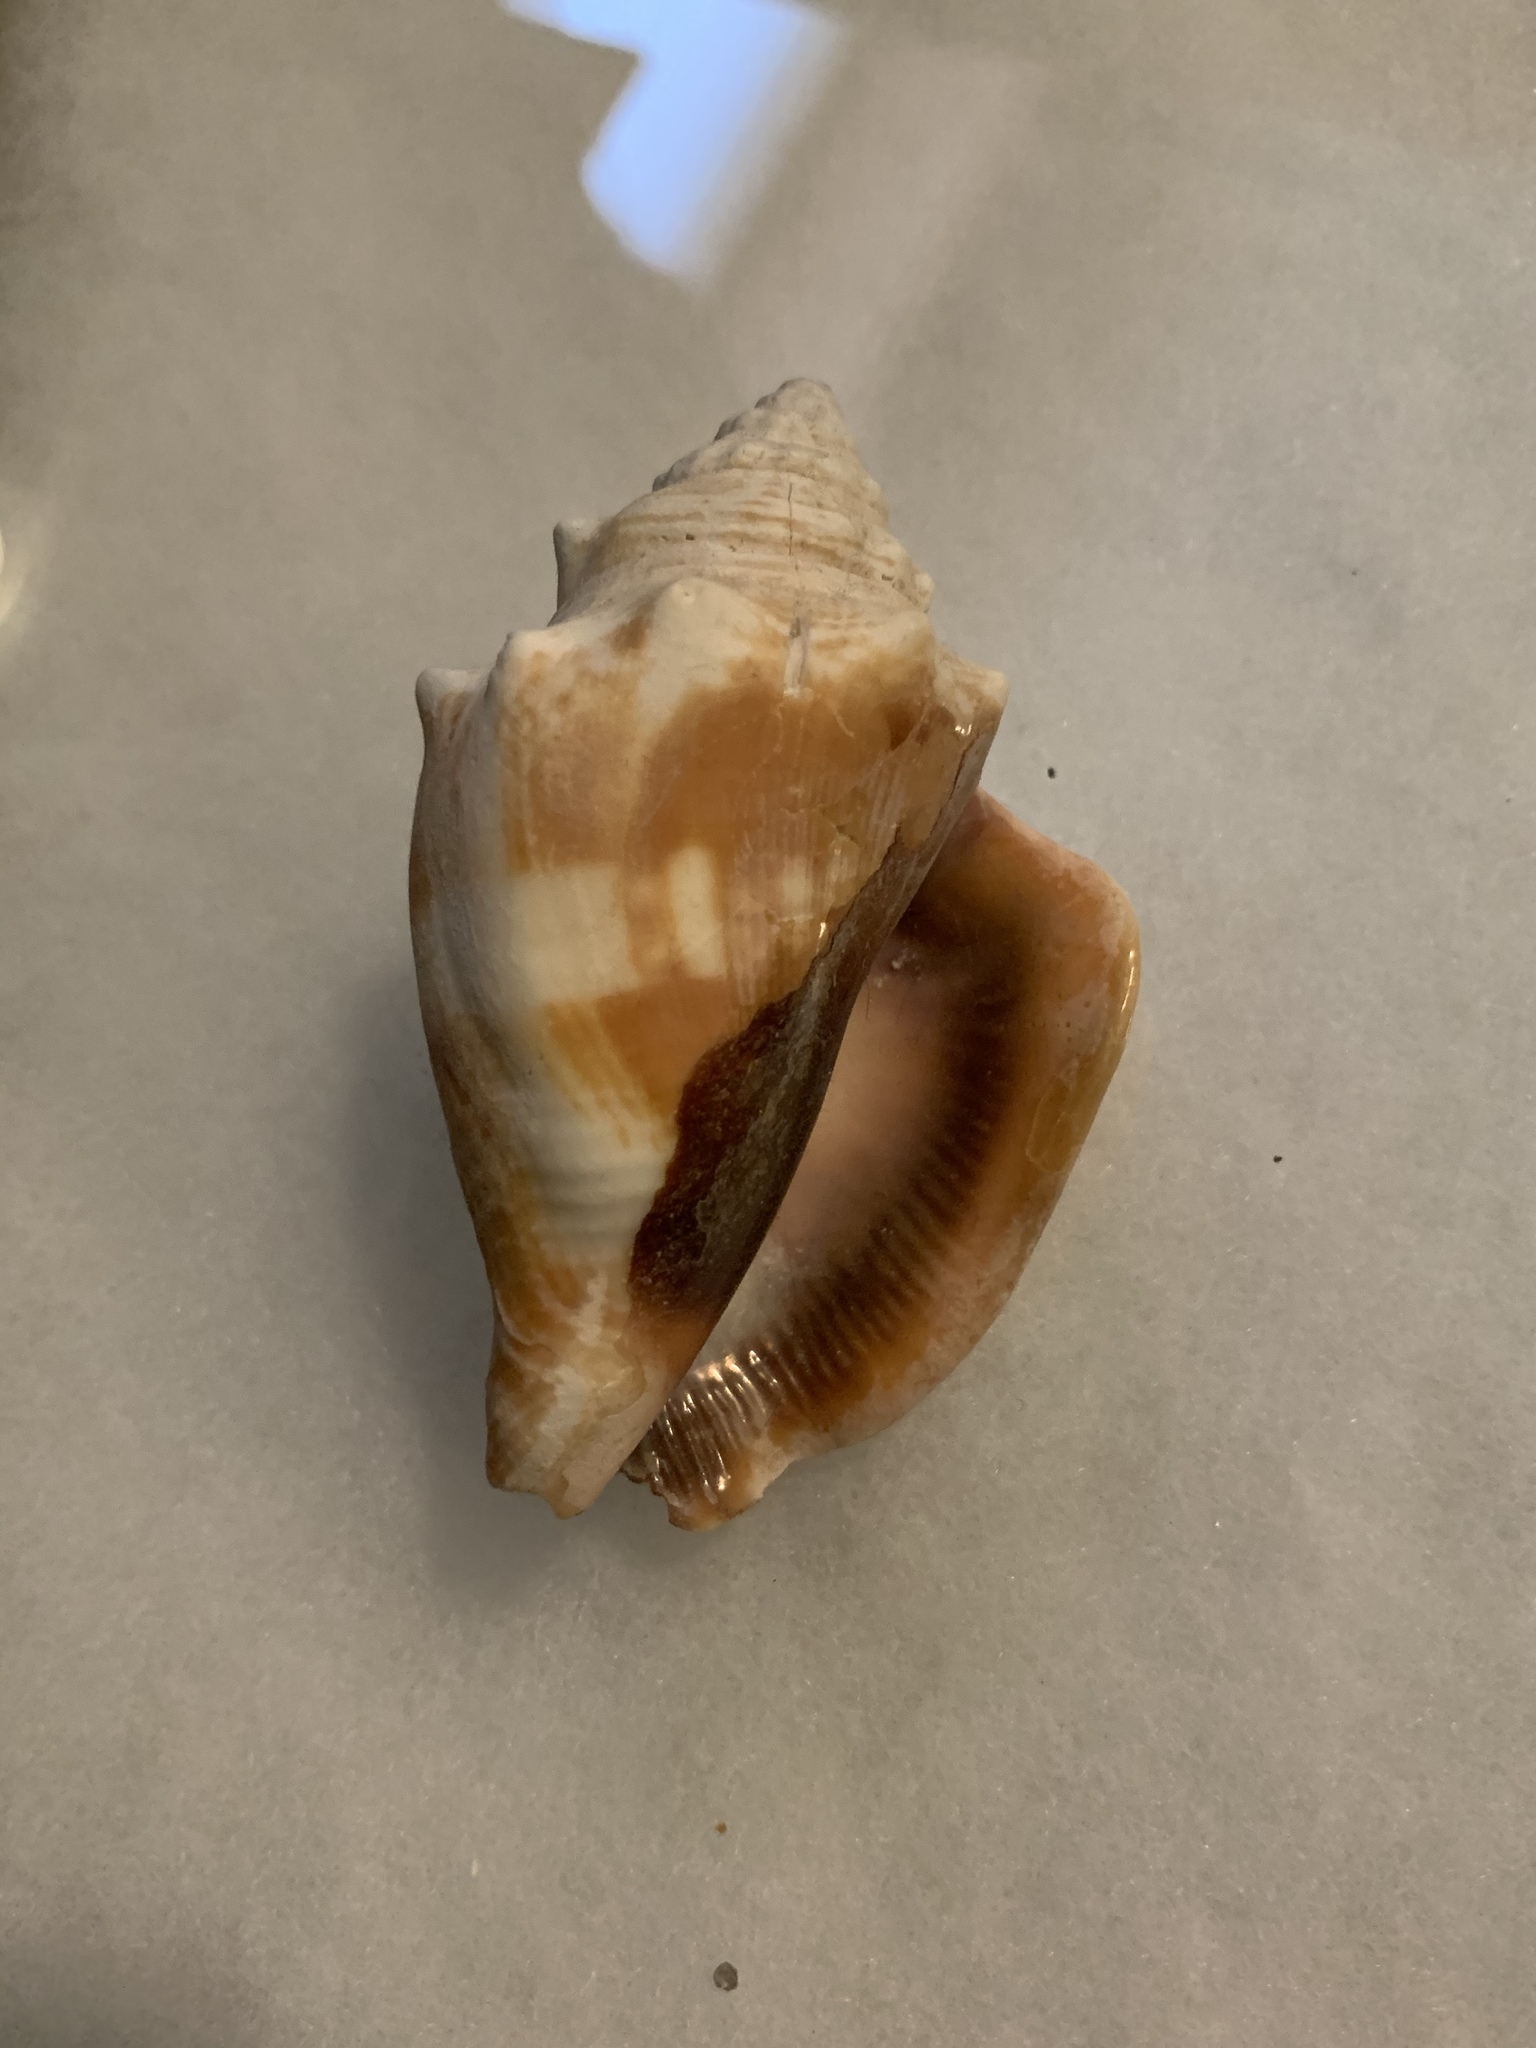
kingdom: Animalia
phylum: Mollusca
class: Gastropoda
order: Littorinimorpha
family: Strombidae
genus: Strombus
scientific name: Strombus alatus
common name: Florida fighting conch
